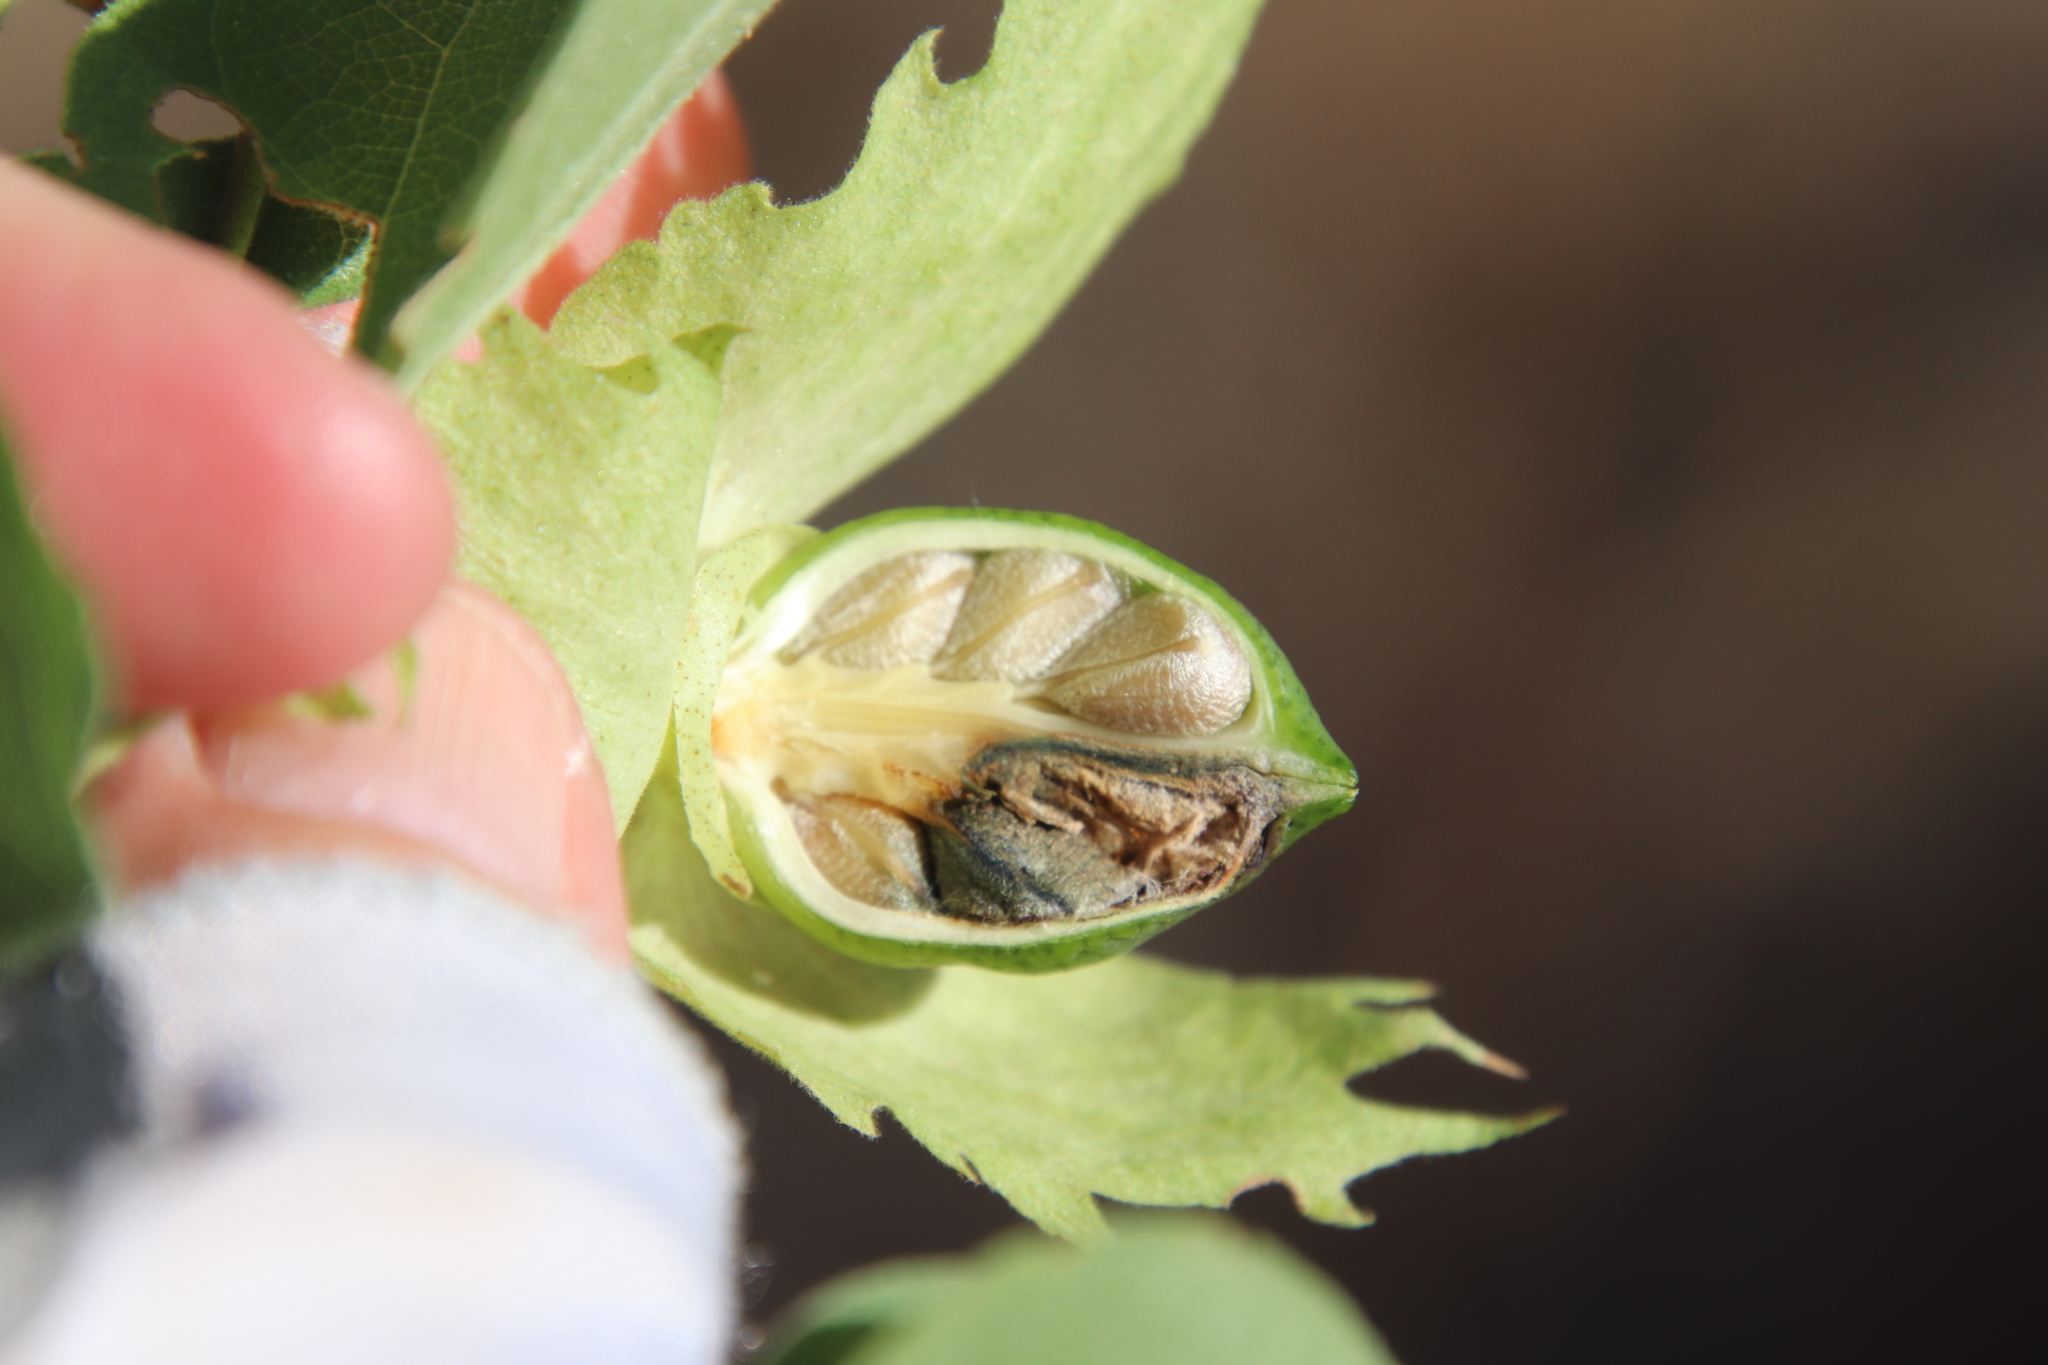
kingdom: Plantae
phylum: Tracheophyta
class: Magnoliopsida
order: Malvales
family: Malvaceae
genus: Gossypium
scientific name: Gossypium klotzschianum
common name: Galapagos cotton
